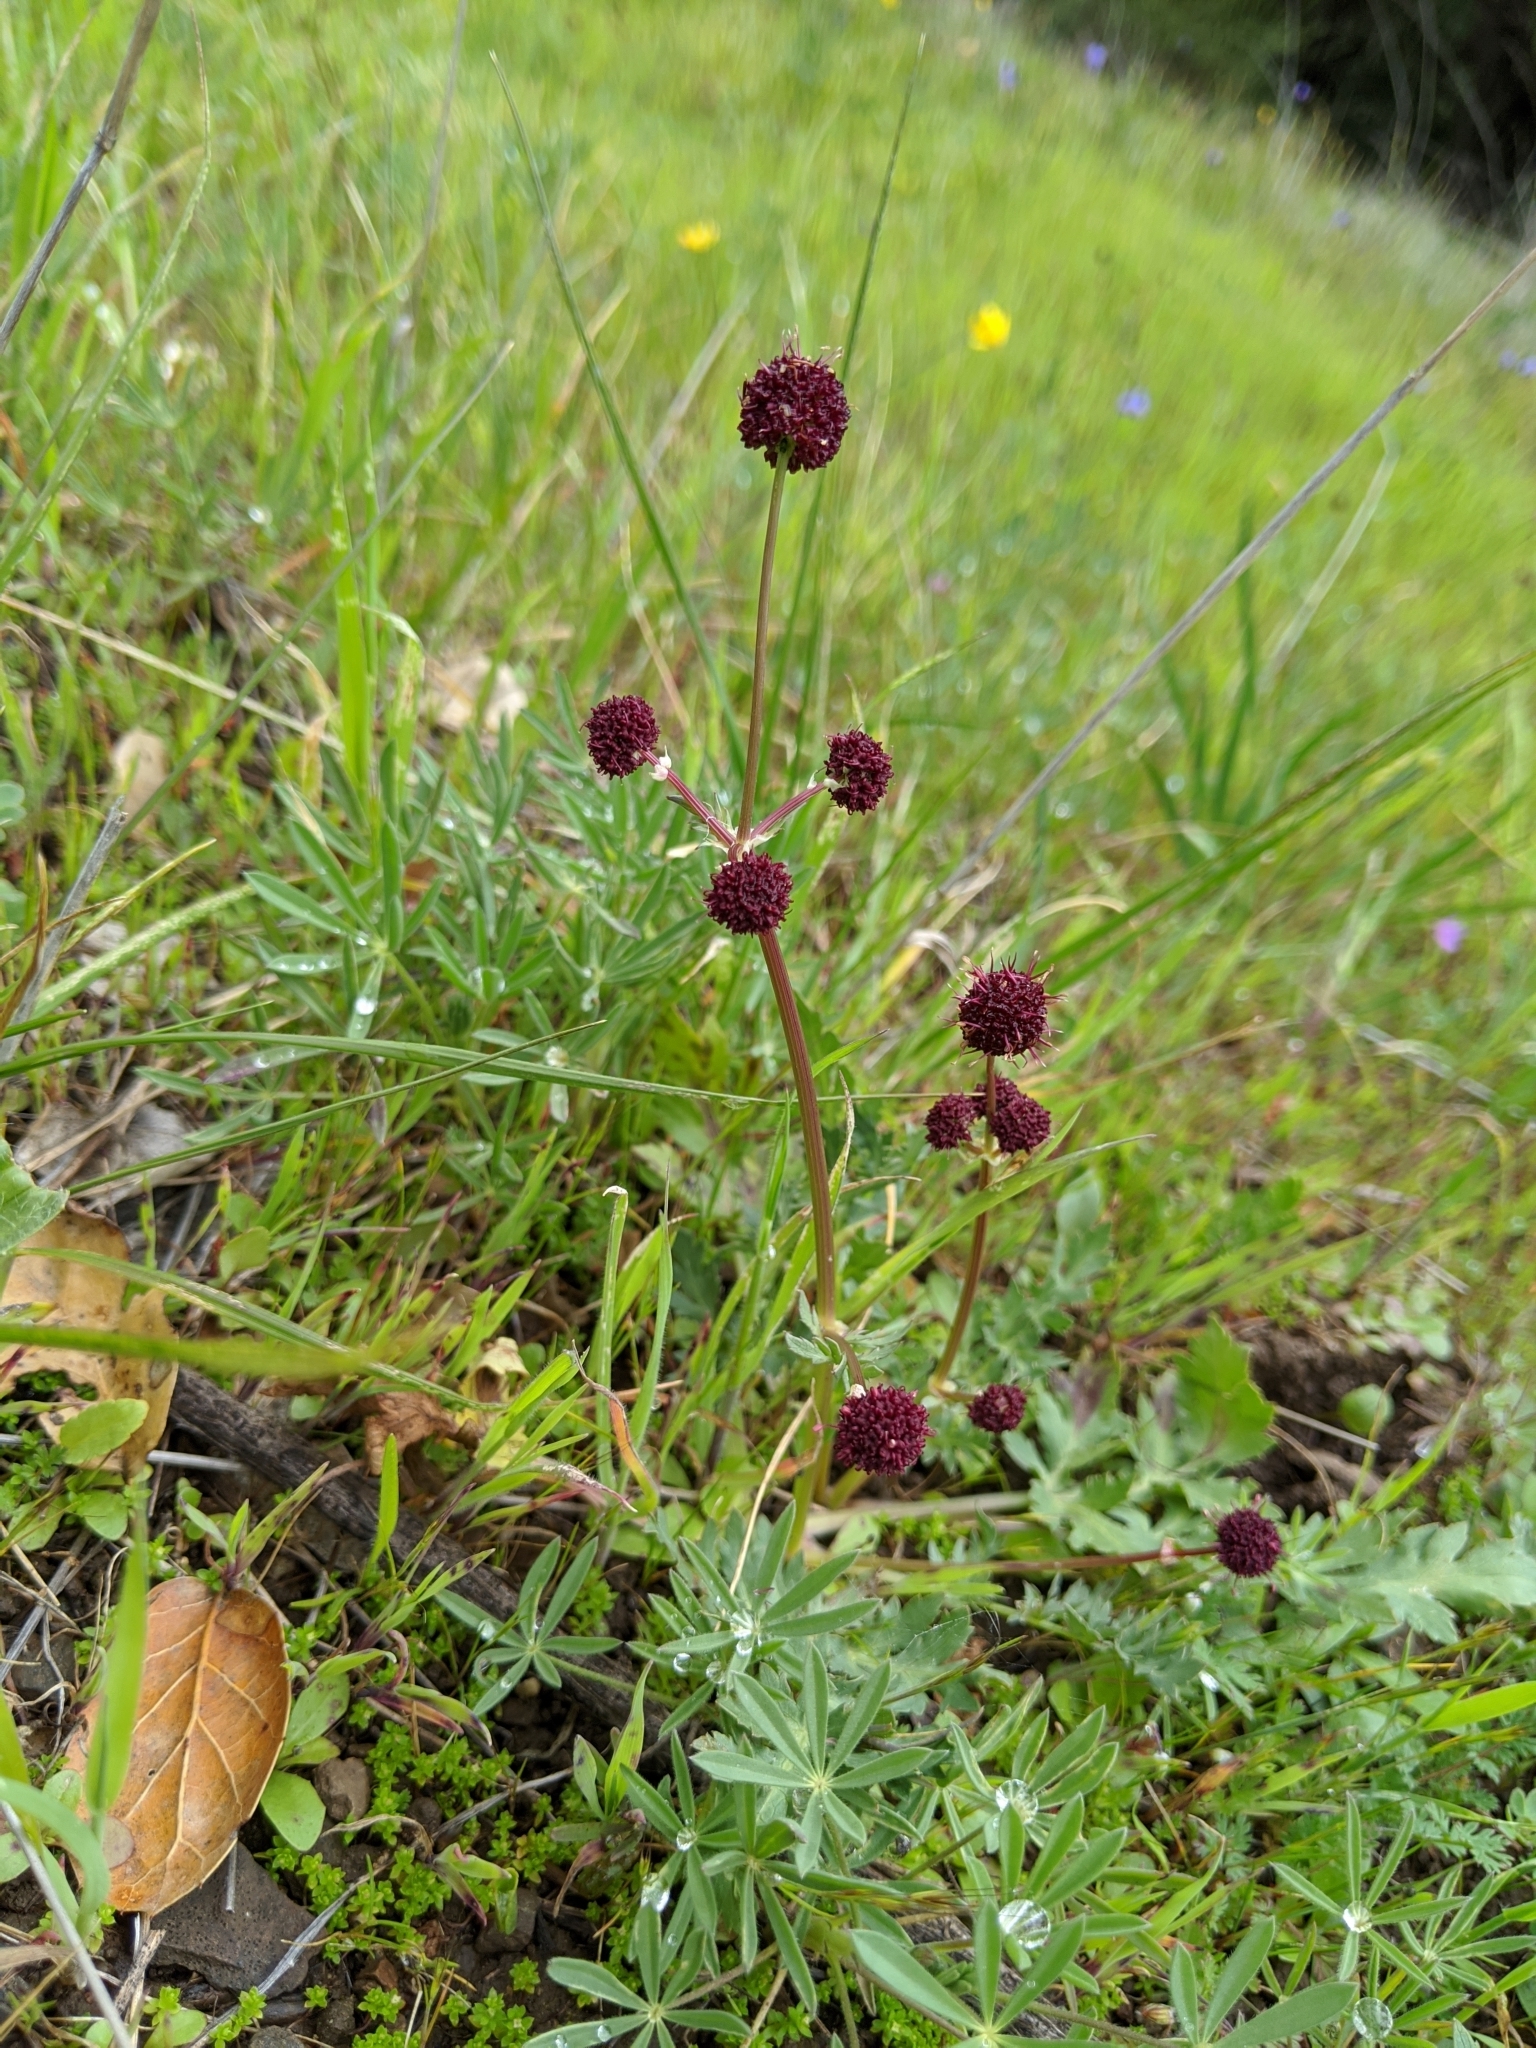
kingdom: Plantae
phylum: Tracheophyta
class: Magnoliopsida
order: Apiales
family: Apiaceae
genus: Sanicula
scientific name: Sanicula bipinnatifida
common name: Shoe-buttons
